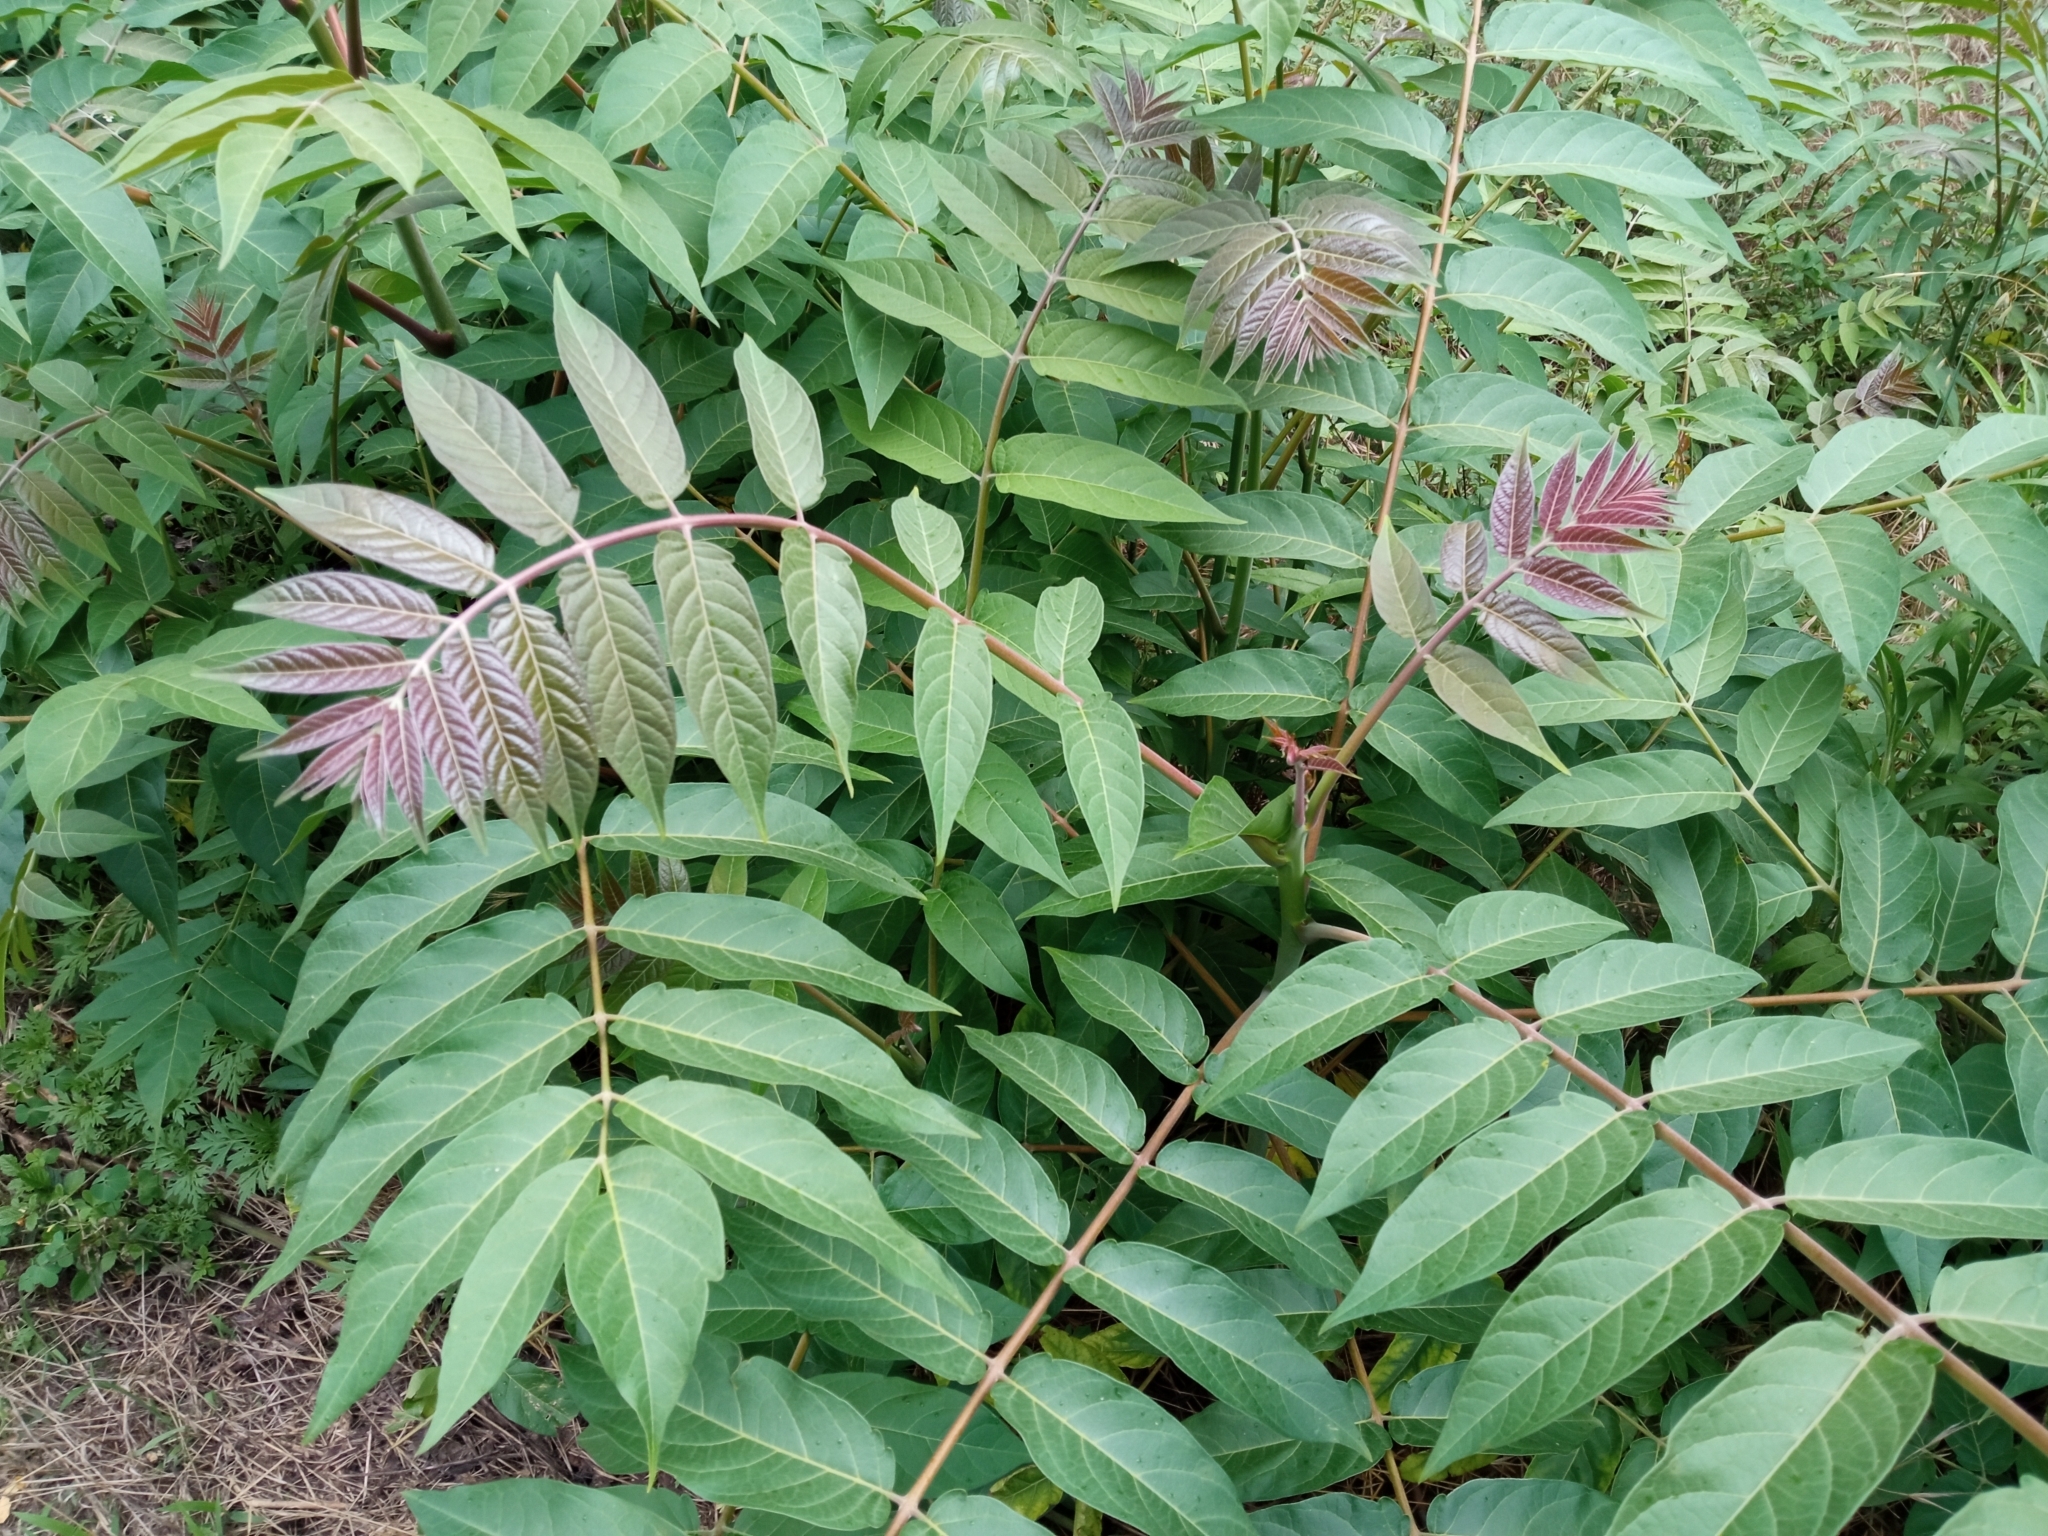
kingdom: Plantae
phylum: Tracheophyta
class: Magnoliopsida
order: Sapindales
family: Simaroubaceae
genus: Ailanthus
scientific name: Ailanthus altissima
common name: Tree-of-heaven
